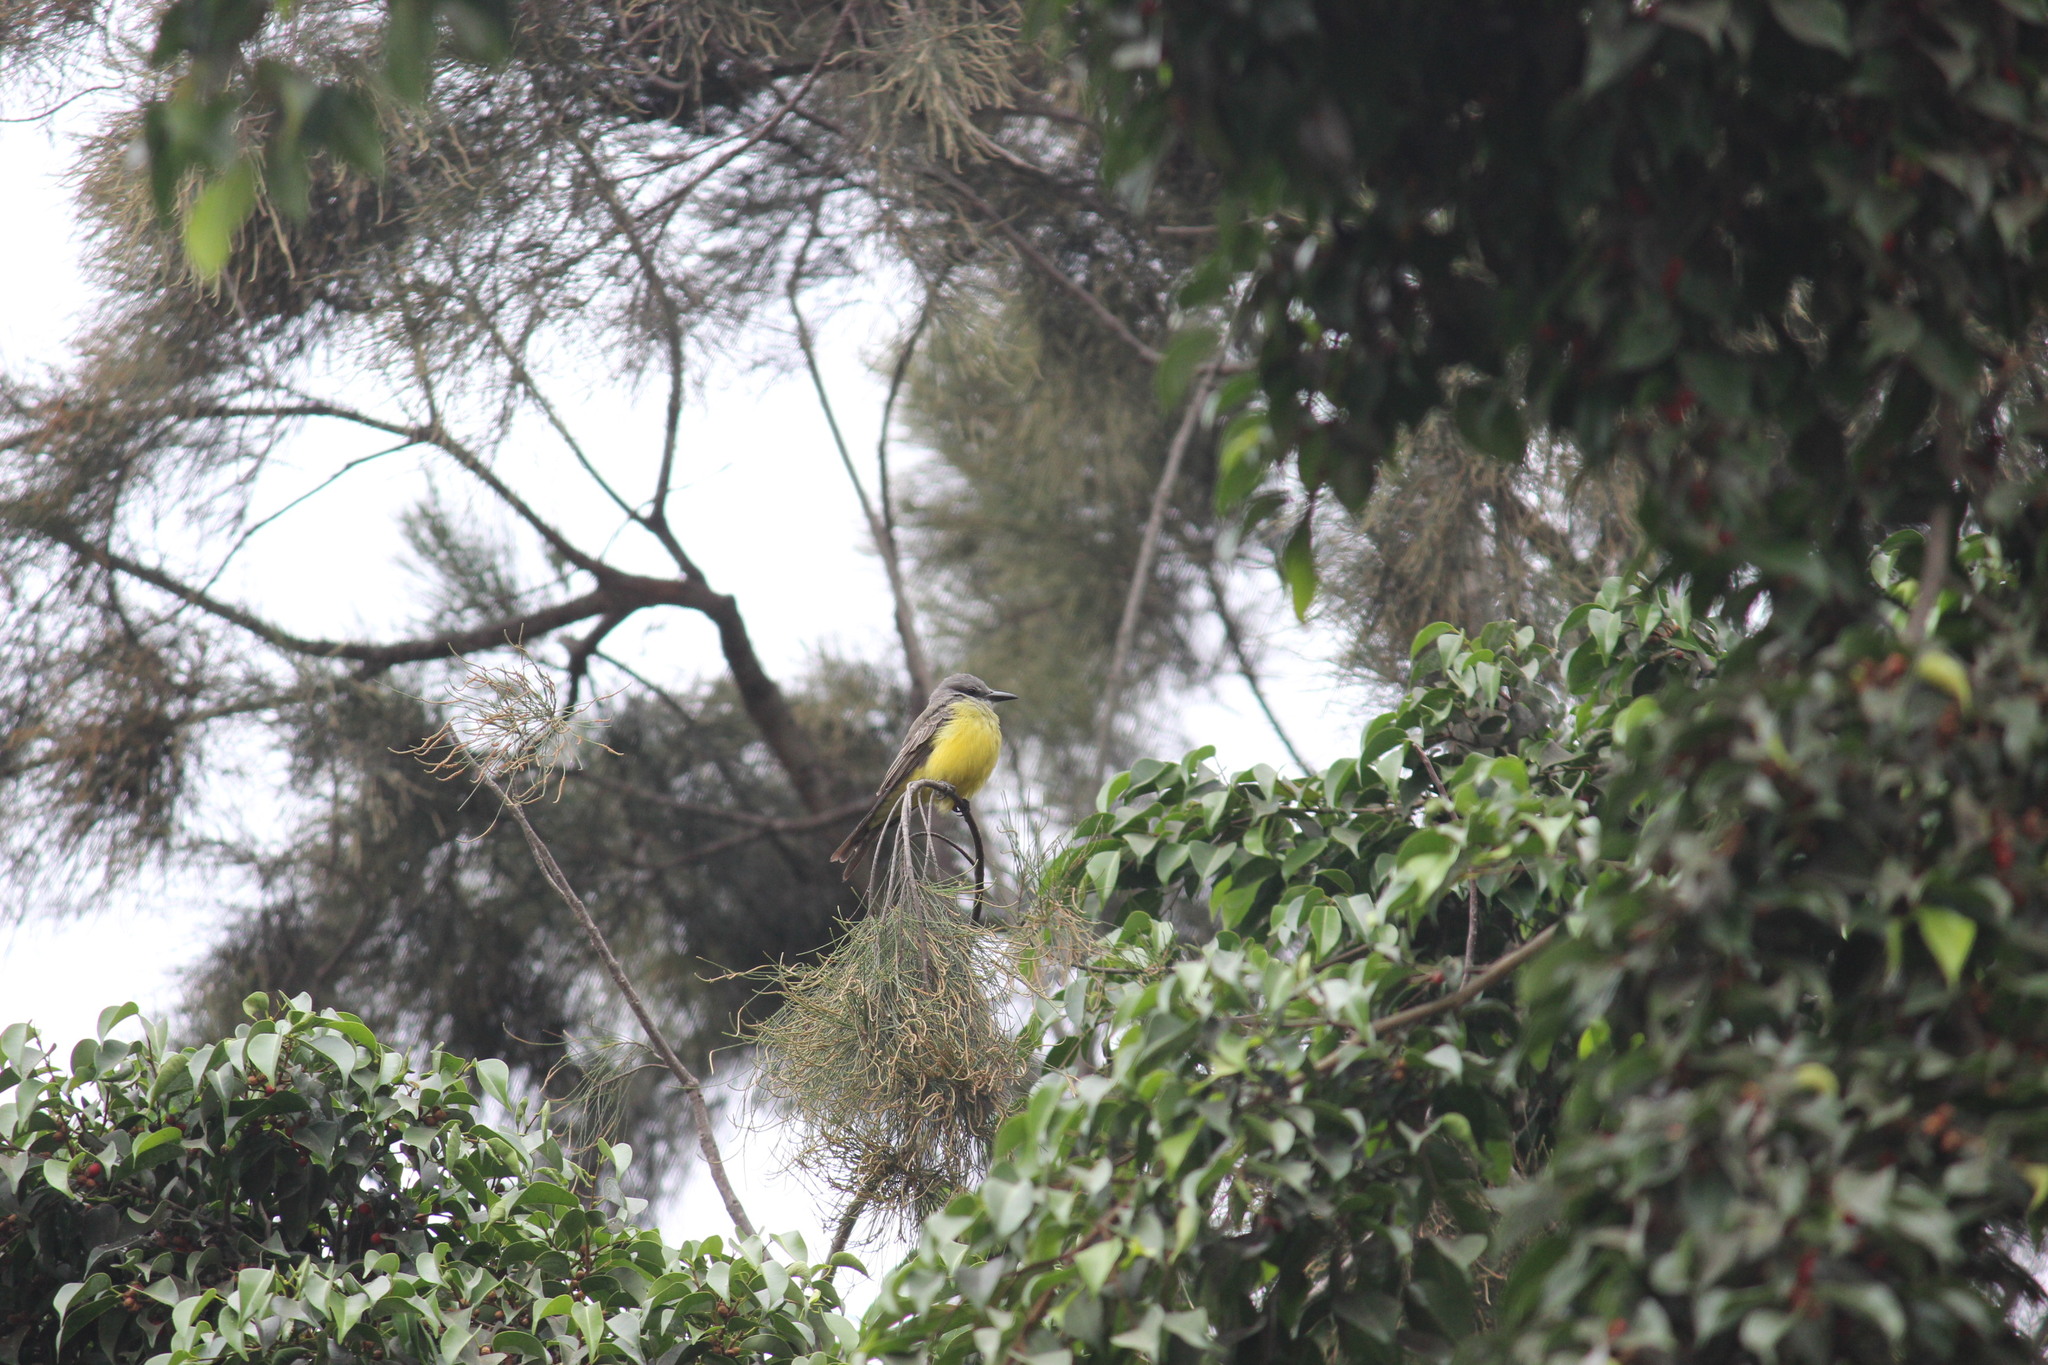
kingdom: Animalia
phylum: Chordata
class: Aves
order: Passeriformes
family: Tyrannidae
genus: Tyrannus
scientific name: Tyrannus melancholicus
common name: Tropical kingbird
